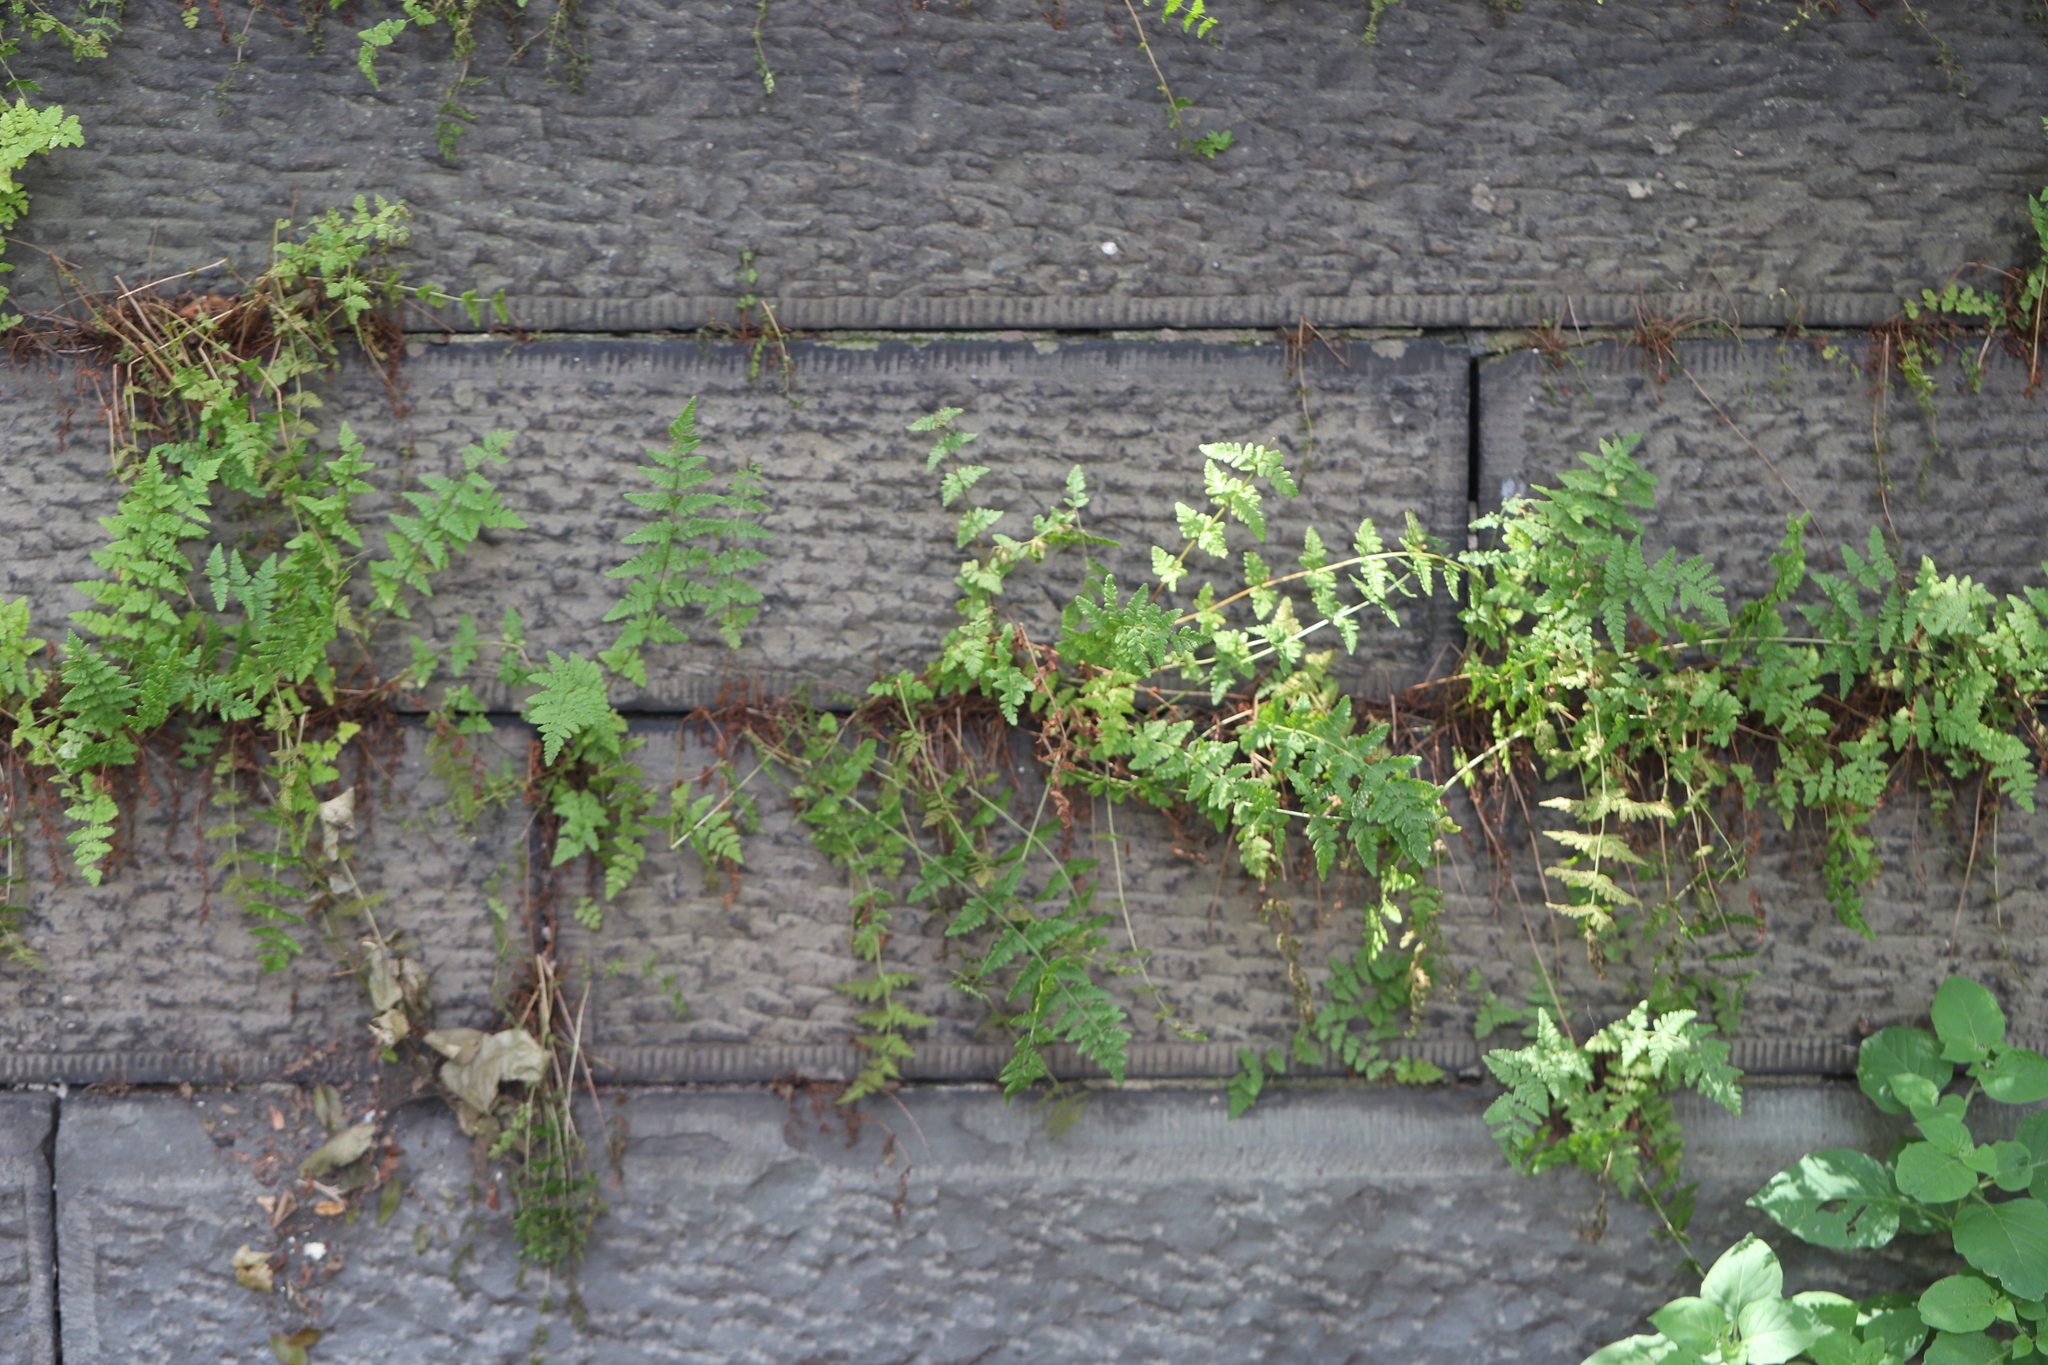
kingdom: Plantae
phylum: Tracheophyta
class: Polypodiopsida
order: Polypodiales
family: Woodsiaceae
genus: Physematium
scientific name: Physematium obtusum
